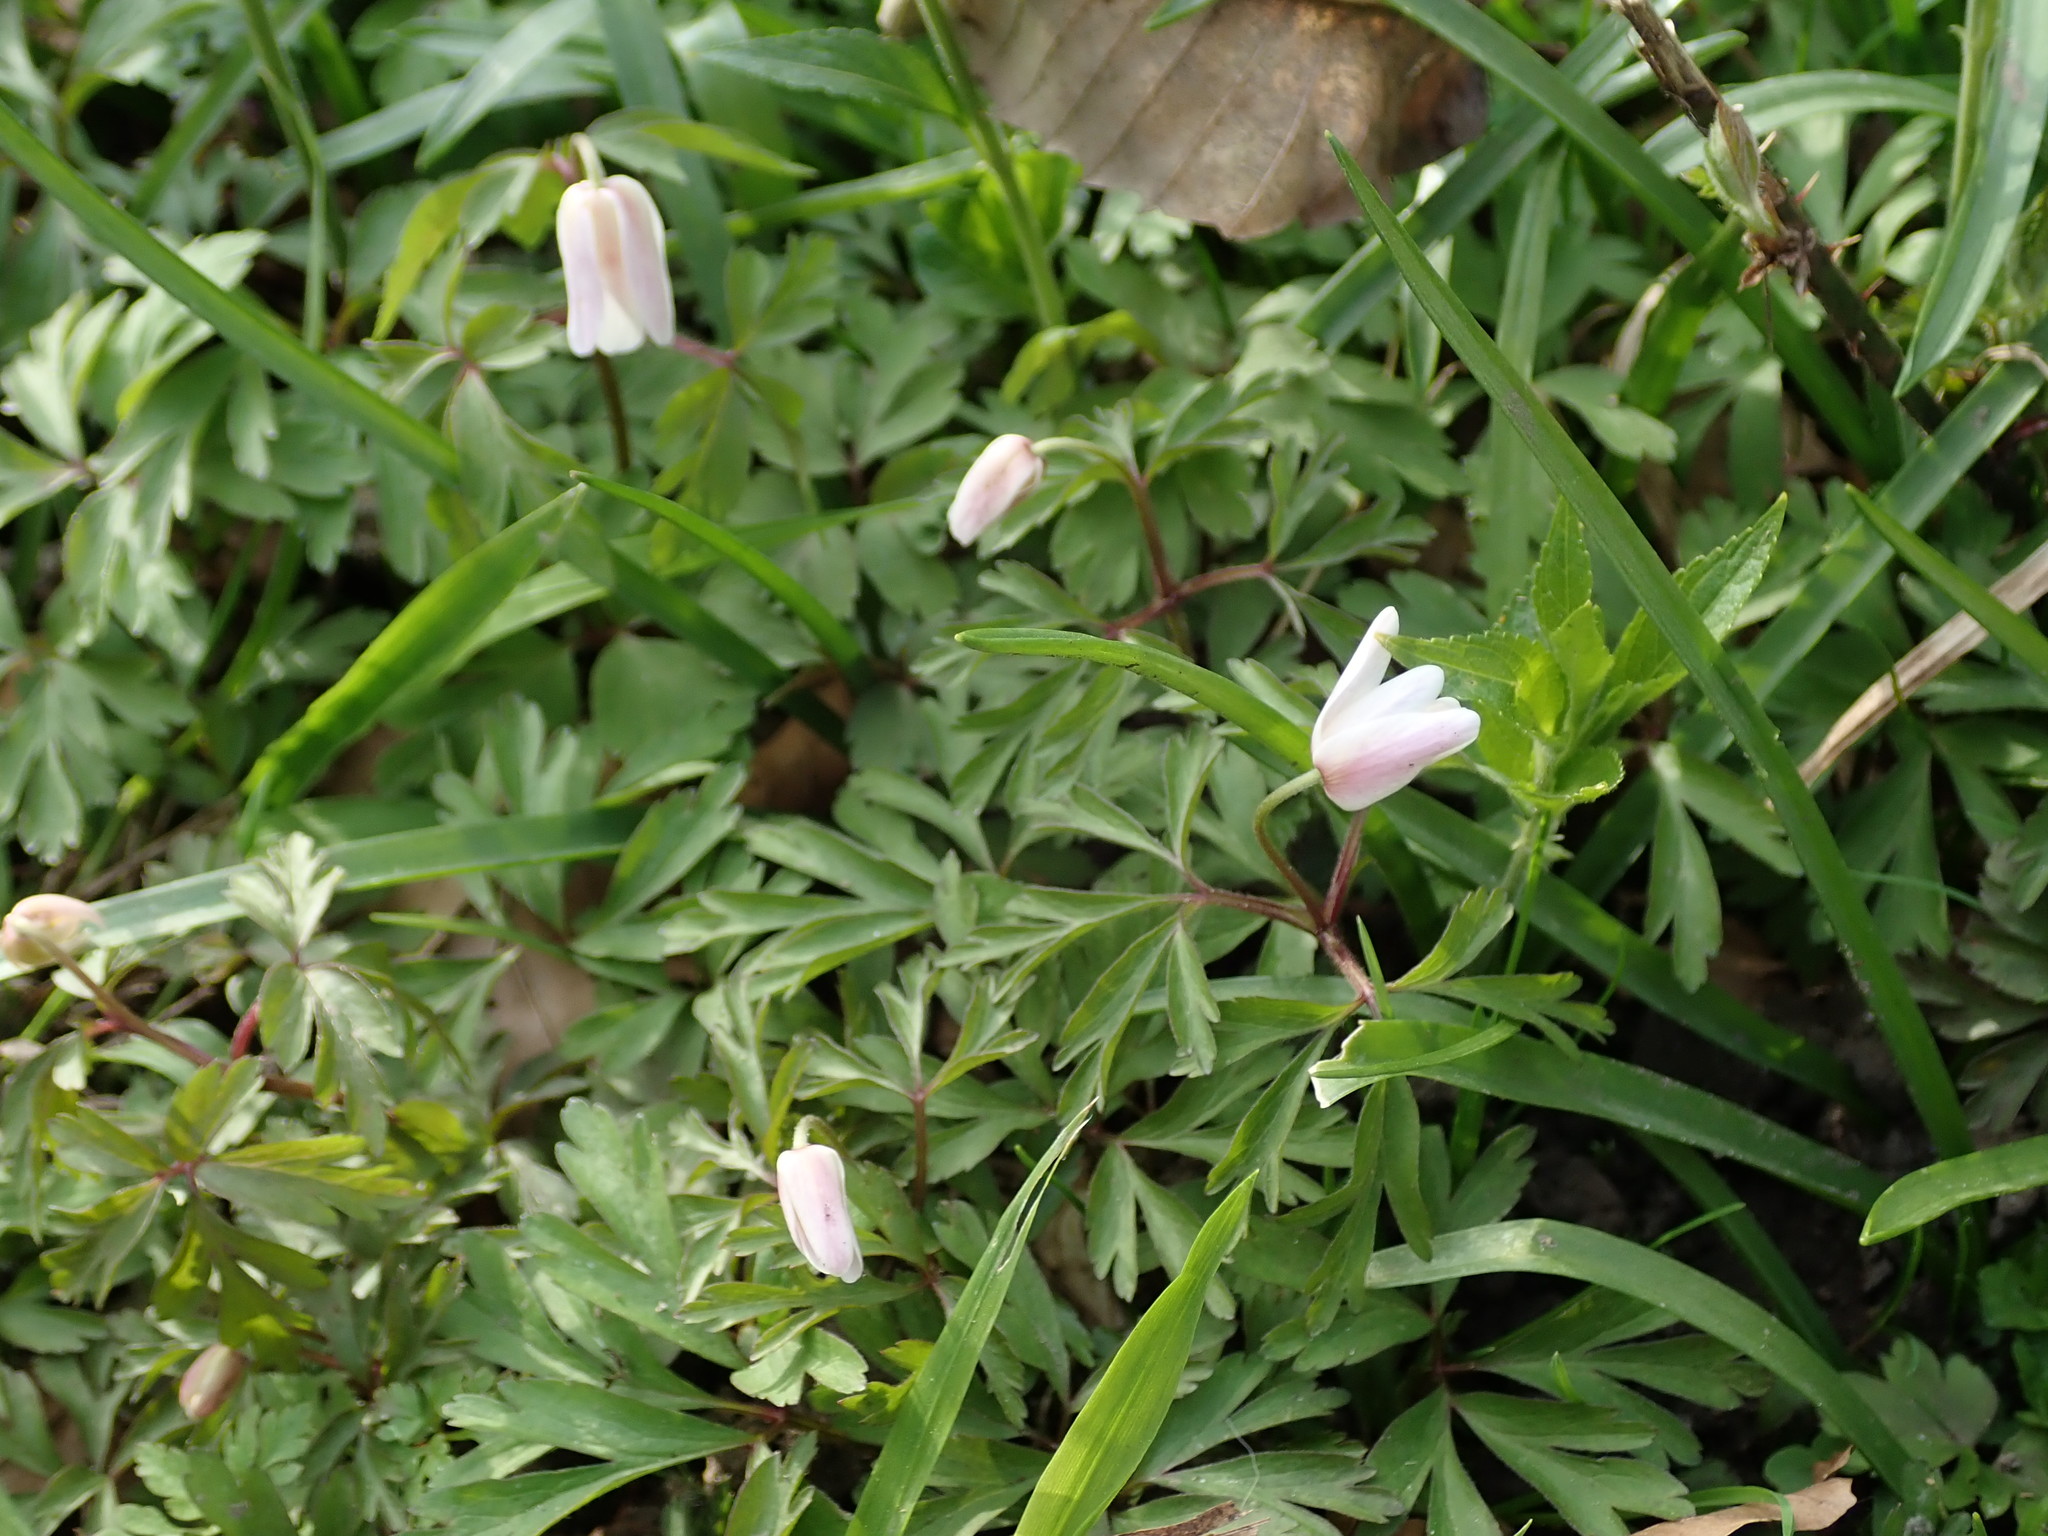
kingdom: Plantae
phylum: Tracheophyta
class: Magnoliopsida
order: Ranunculales
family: Ranunculaceae
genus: Anemone
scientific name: Anemone nemorosa
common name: Wood anemone
